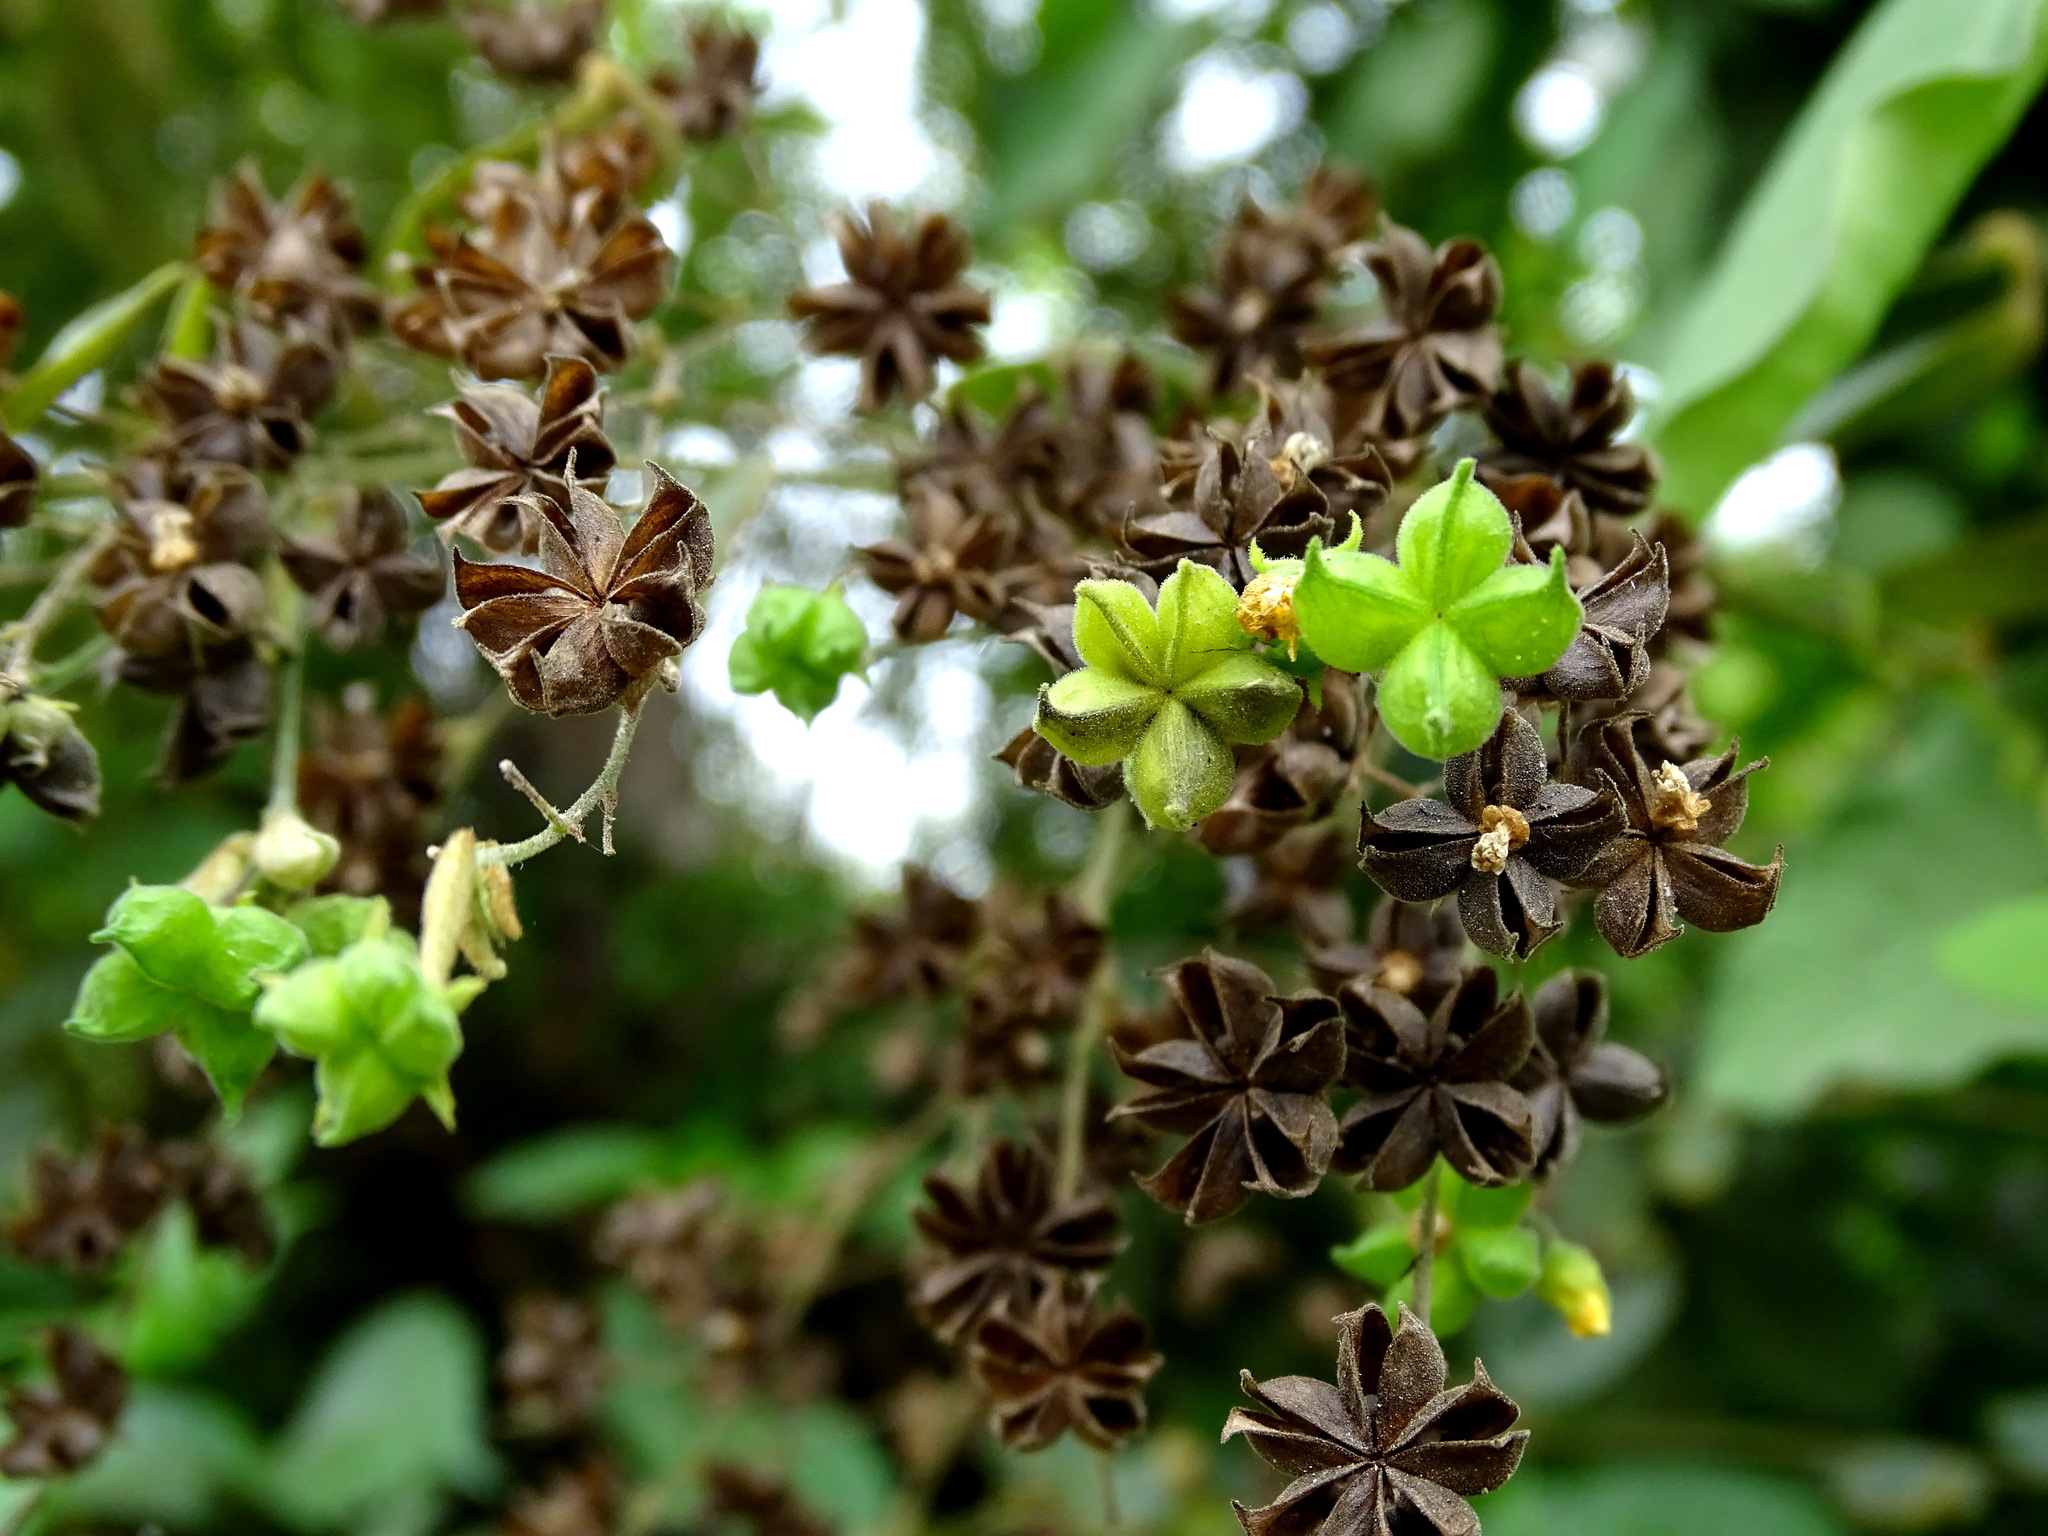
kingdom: Plantae
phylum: Tracheophyta
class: Magnoliopsida
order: Malvales
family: Malvaceae
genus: Wissadula
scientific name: Wissadula excelsior
